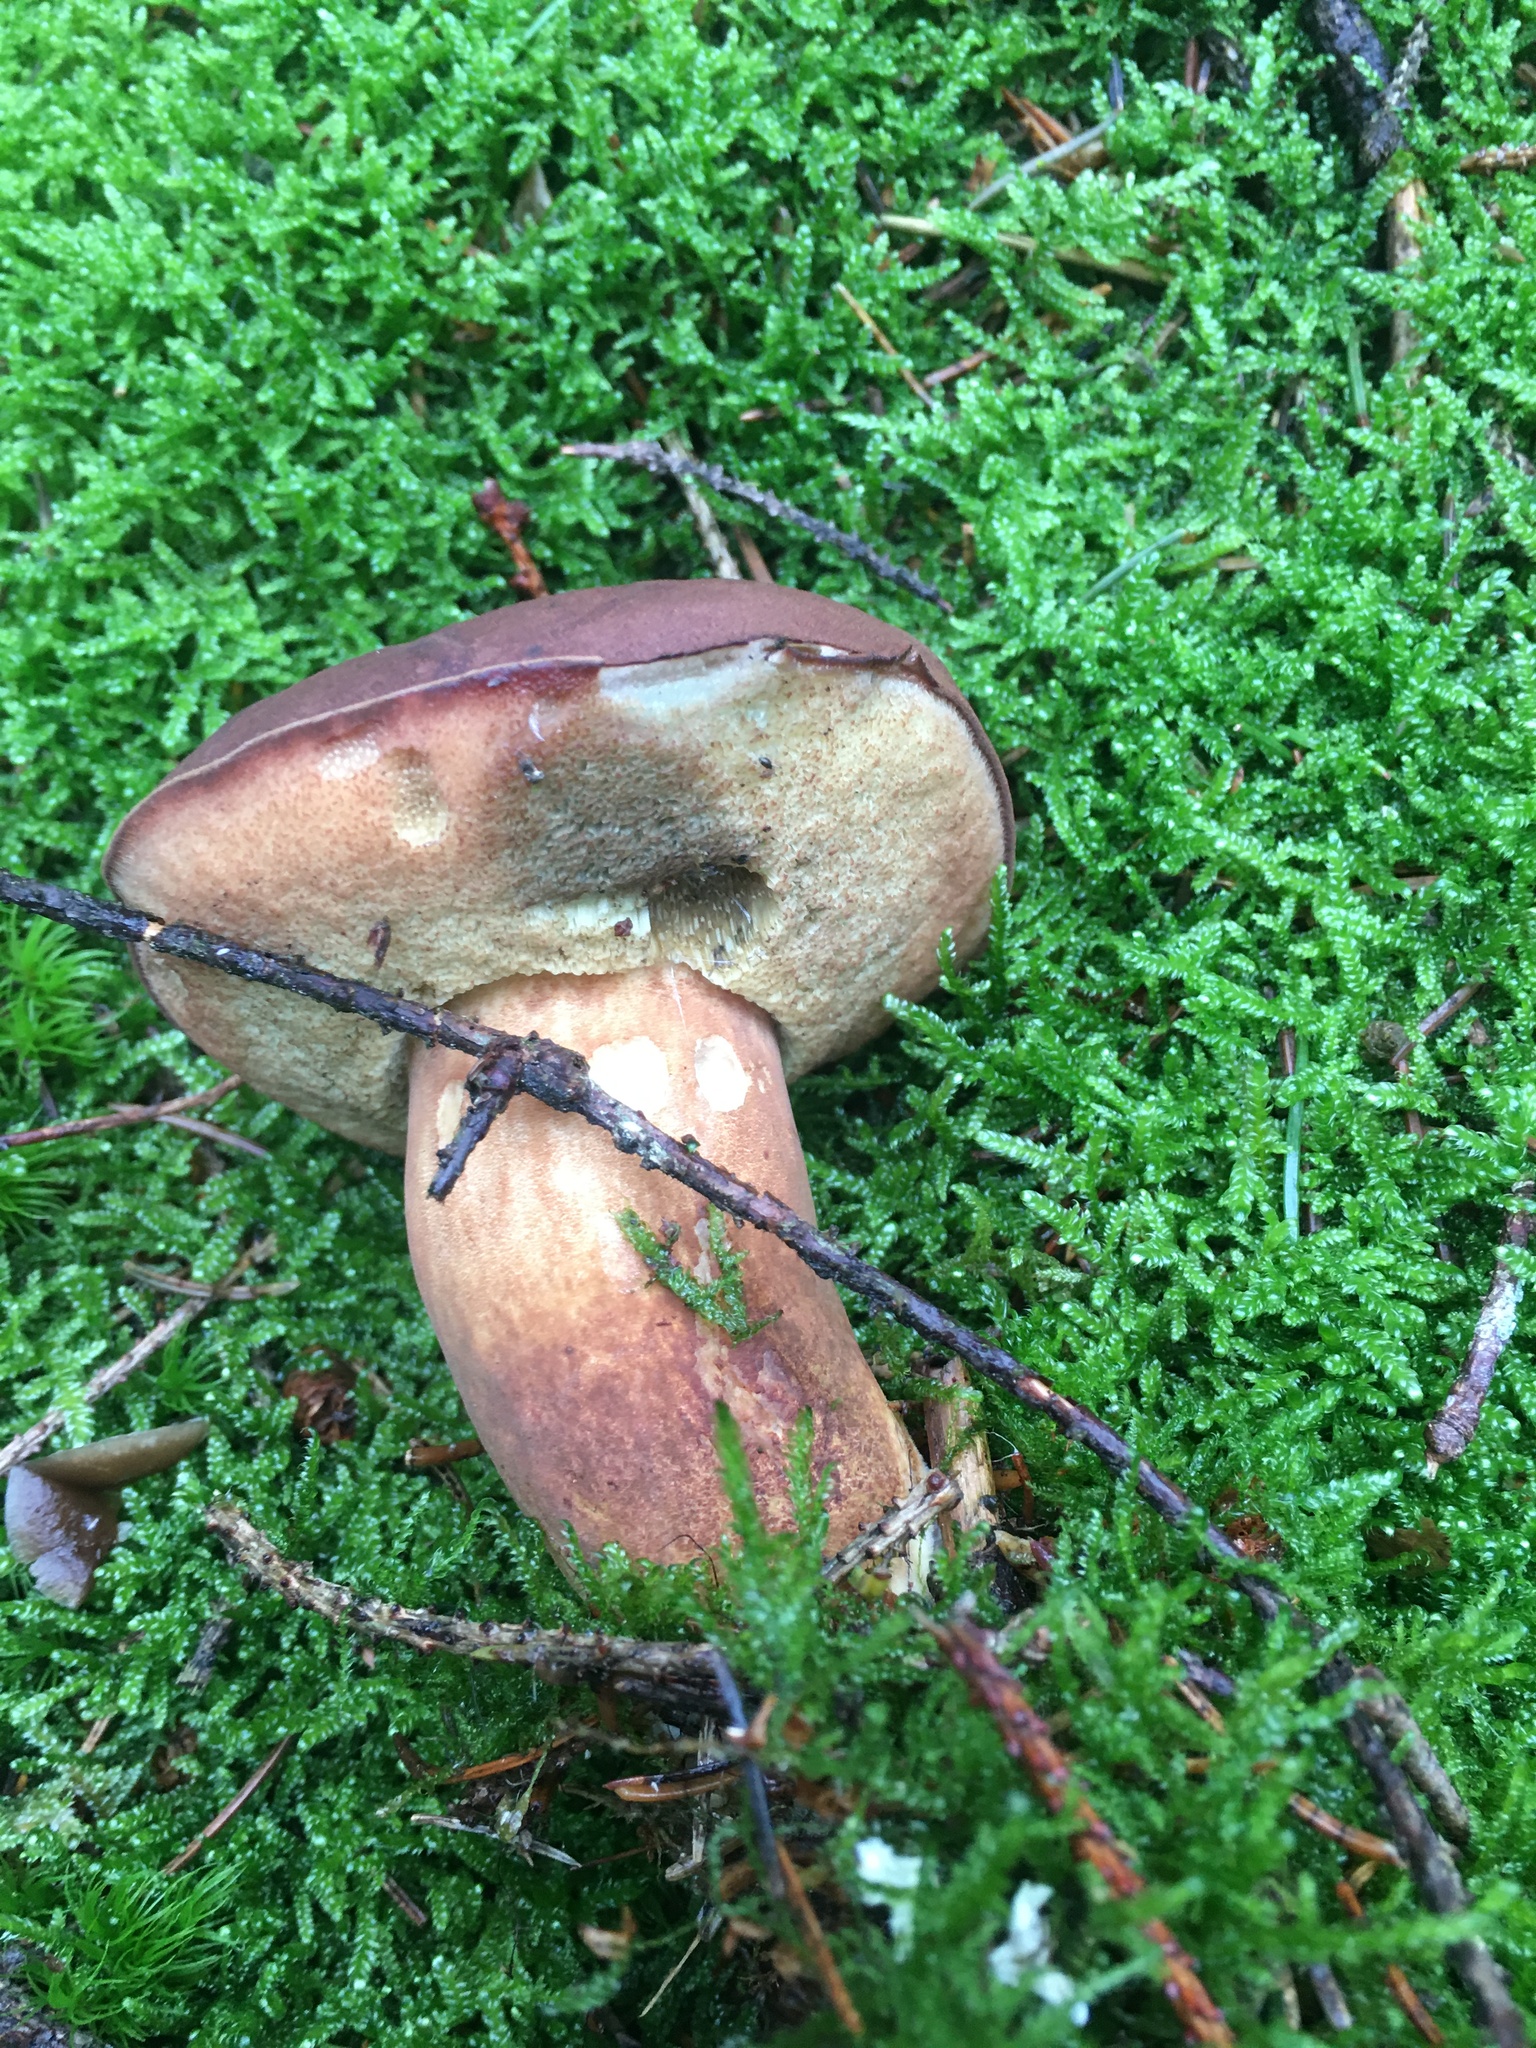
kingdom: Fungi
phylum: Basidiomycota
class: Agaricomycetes
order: Boletales
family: Boletaceae
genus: Imleria
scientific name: Imleria badia
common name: Bay bolete
